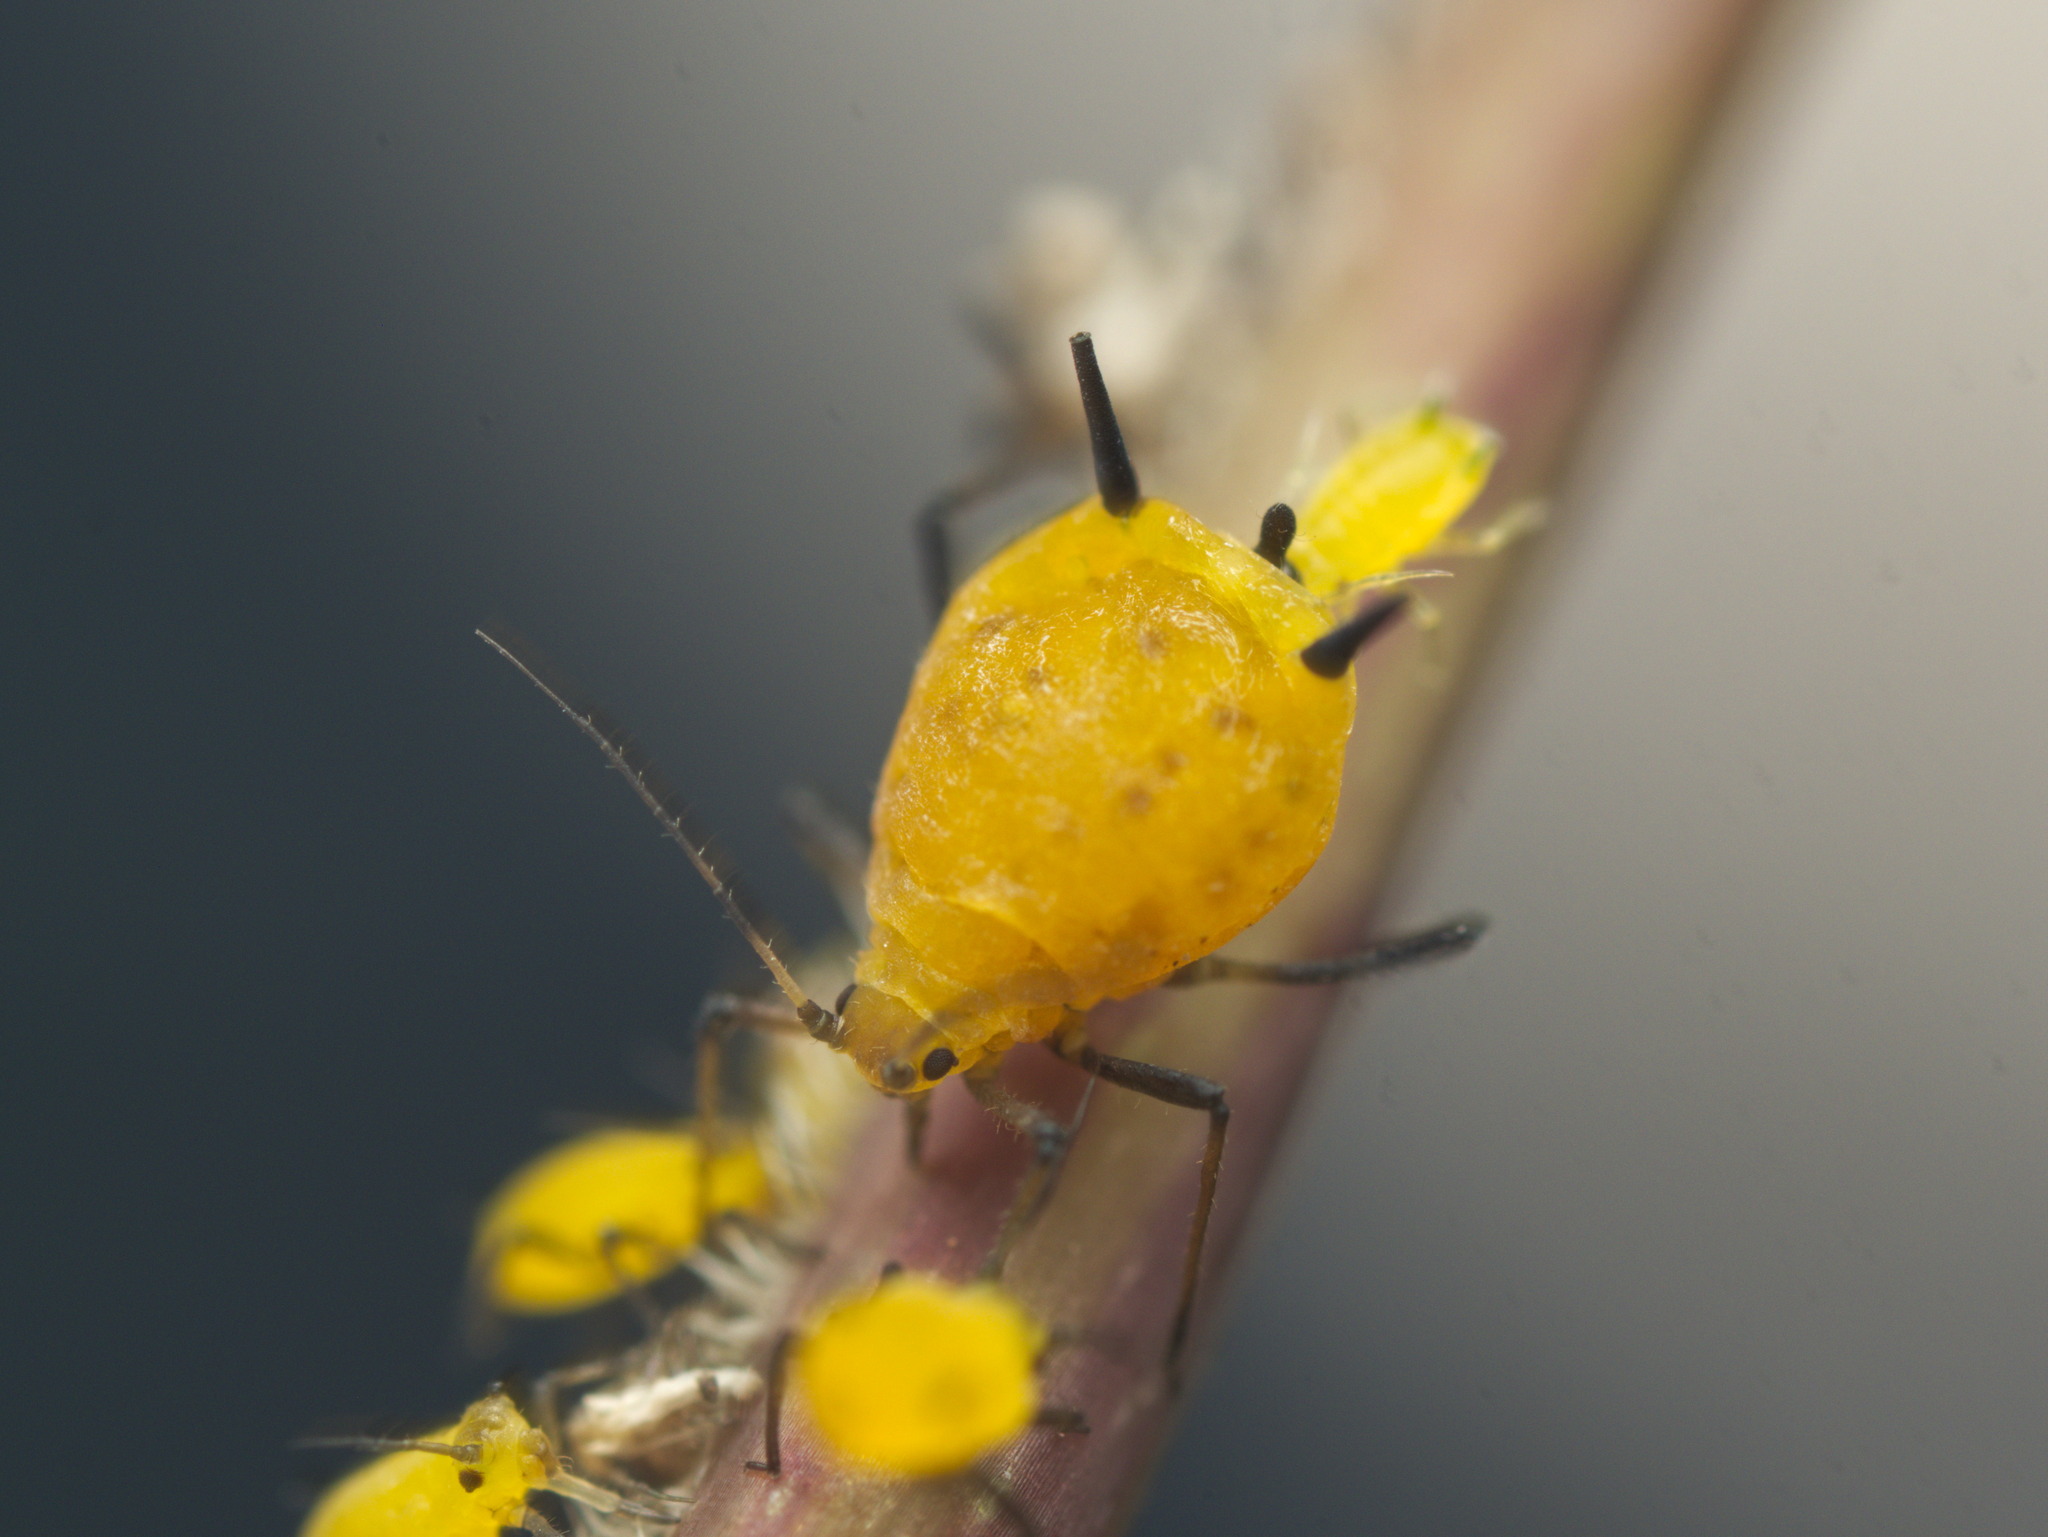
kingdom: Animalia
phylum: Arthropoda
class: Insecta
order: Hemiptera
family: Aphididae
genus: Aphis
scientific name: Aphis nerii
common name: Oleander aphid
